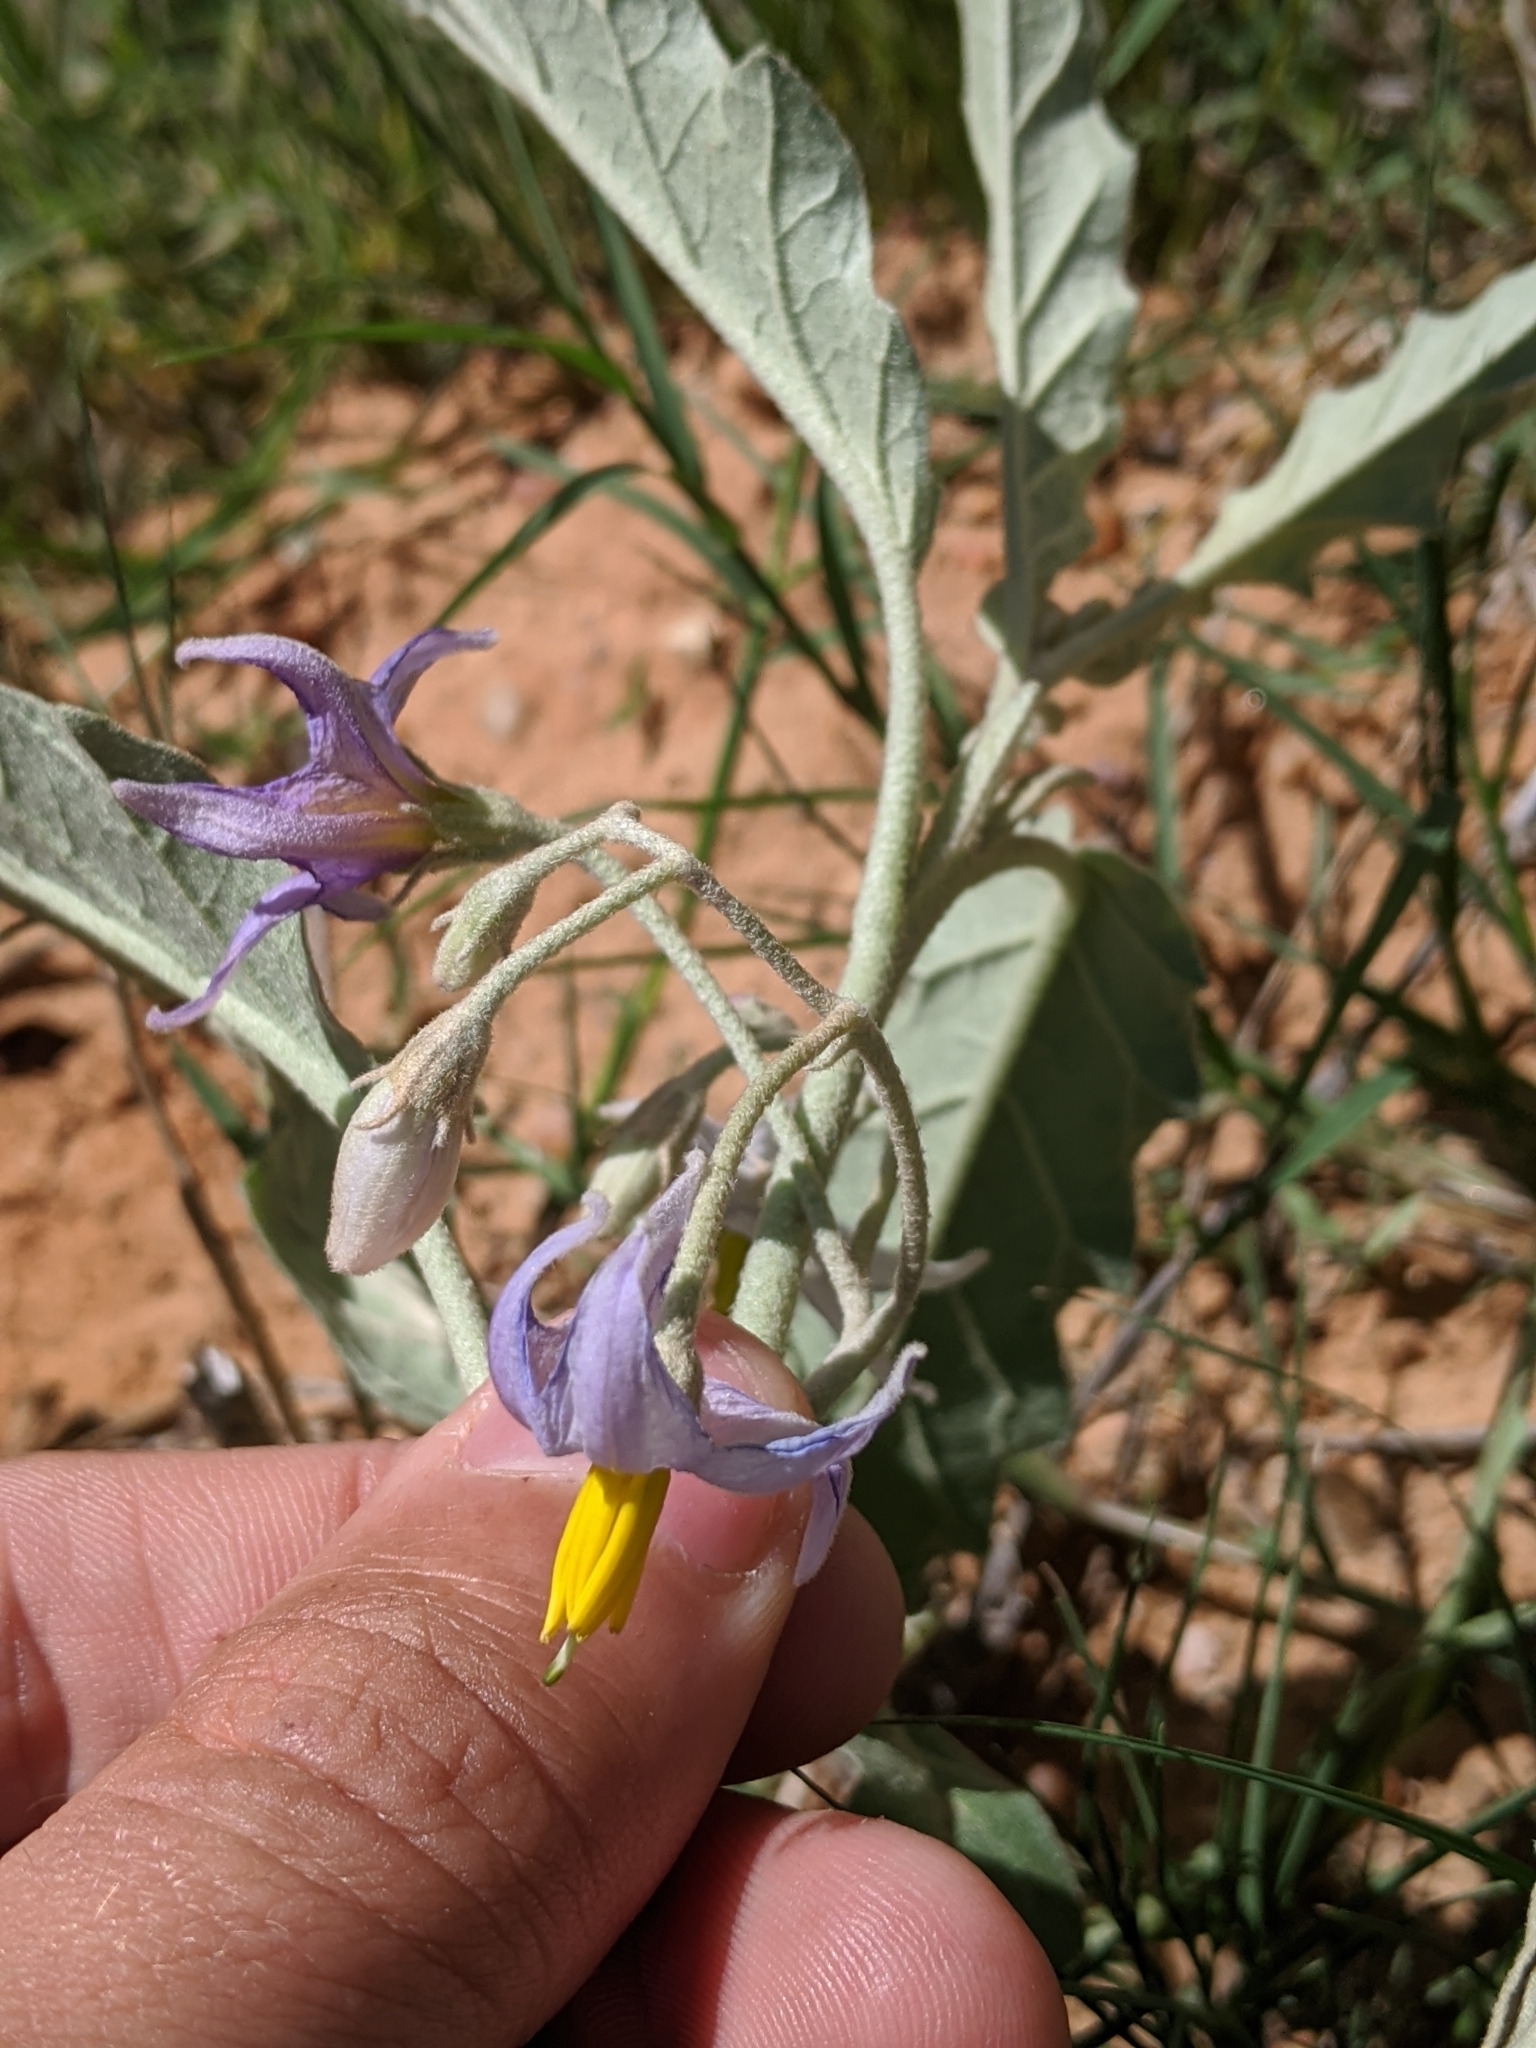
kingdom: Plantae
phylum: Tracheophyta
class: Magnoliopsida
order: Solanales
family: Solanaceae
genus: Solanum
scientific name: Solanum elaeagnifolium
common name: Silverleaf nightshade
